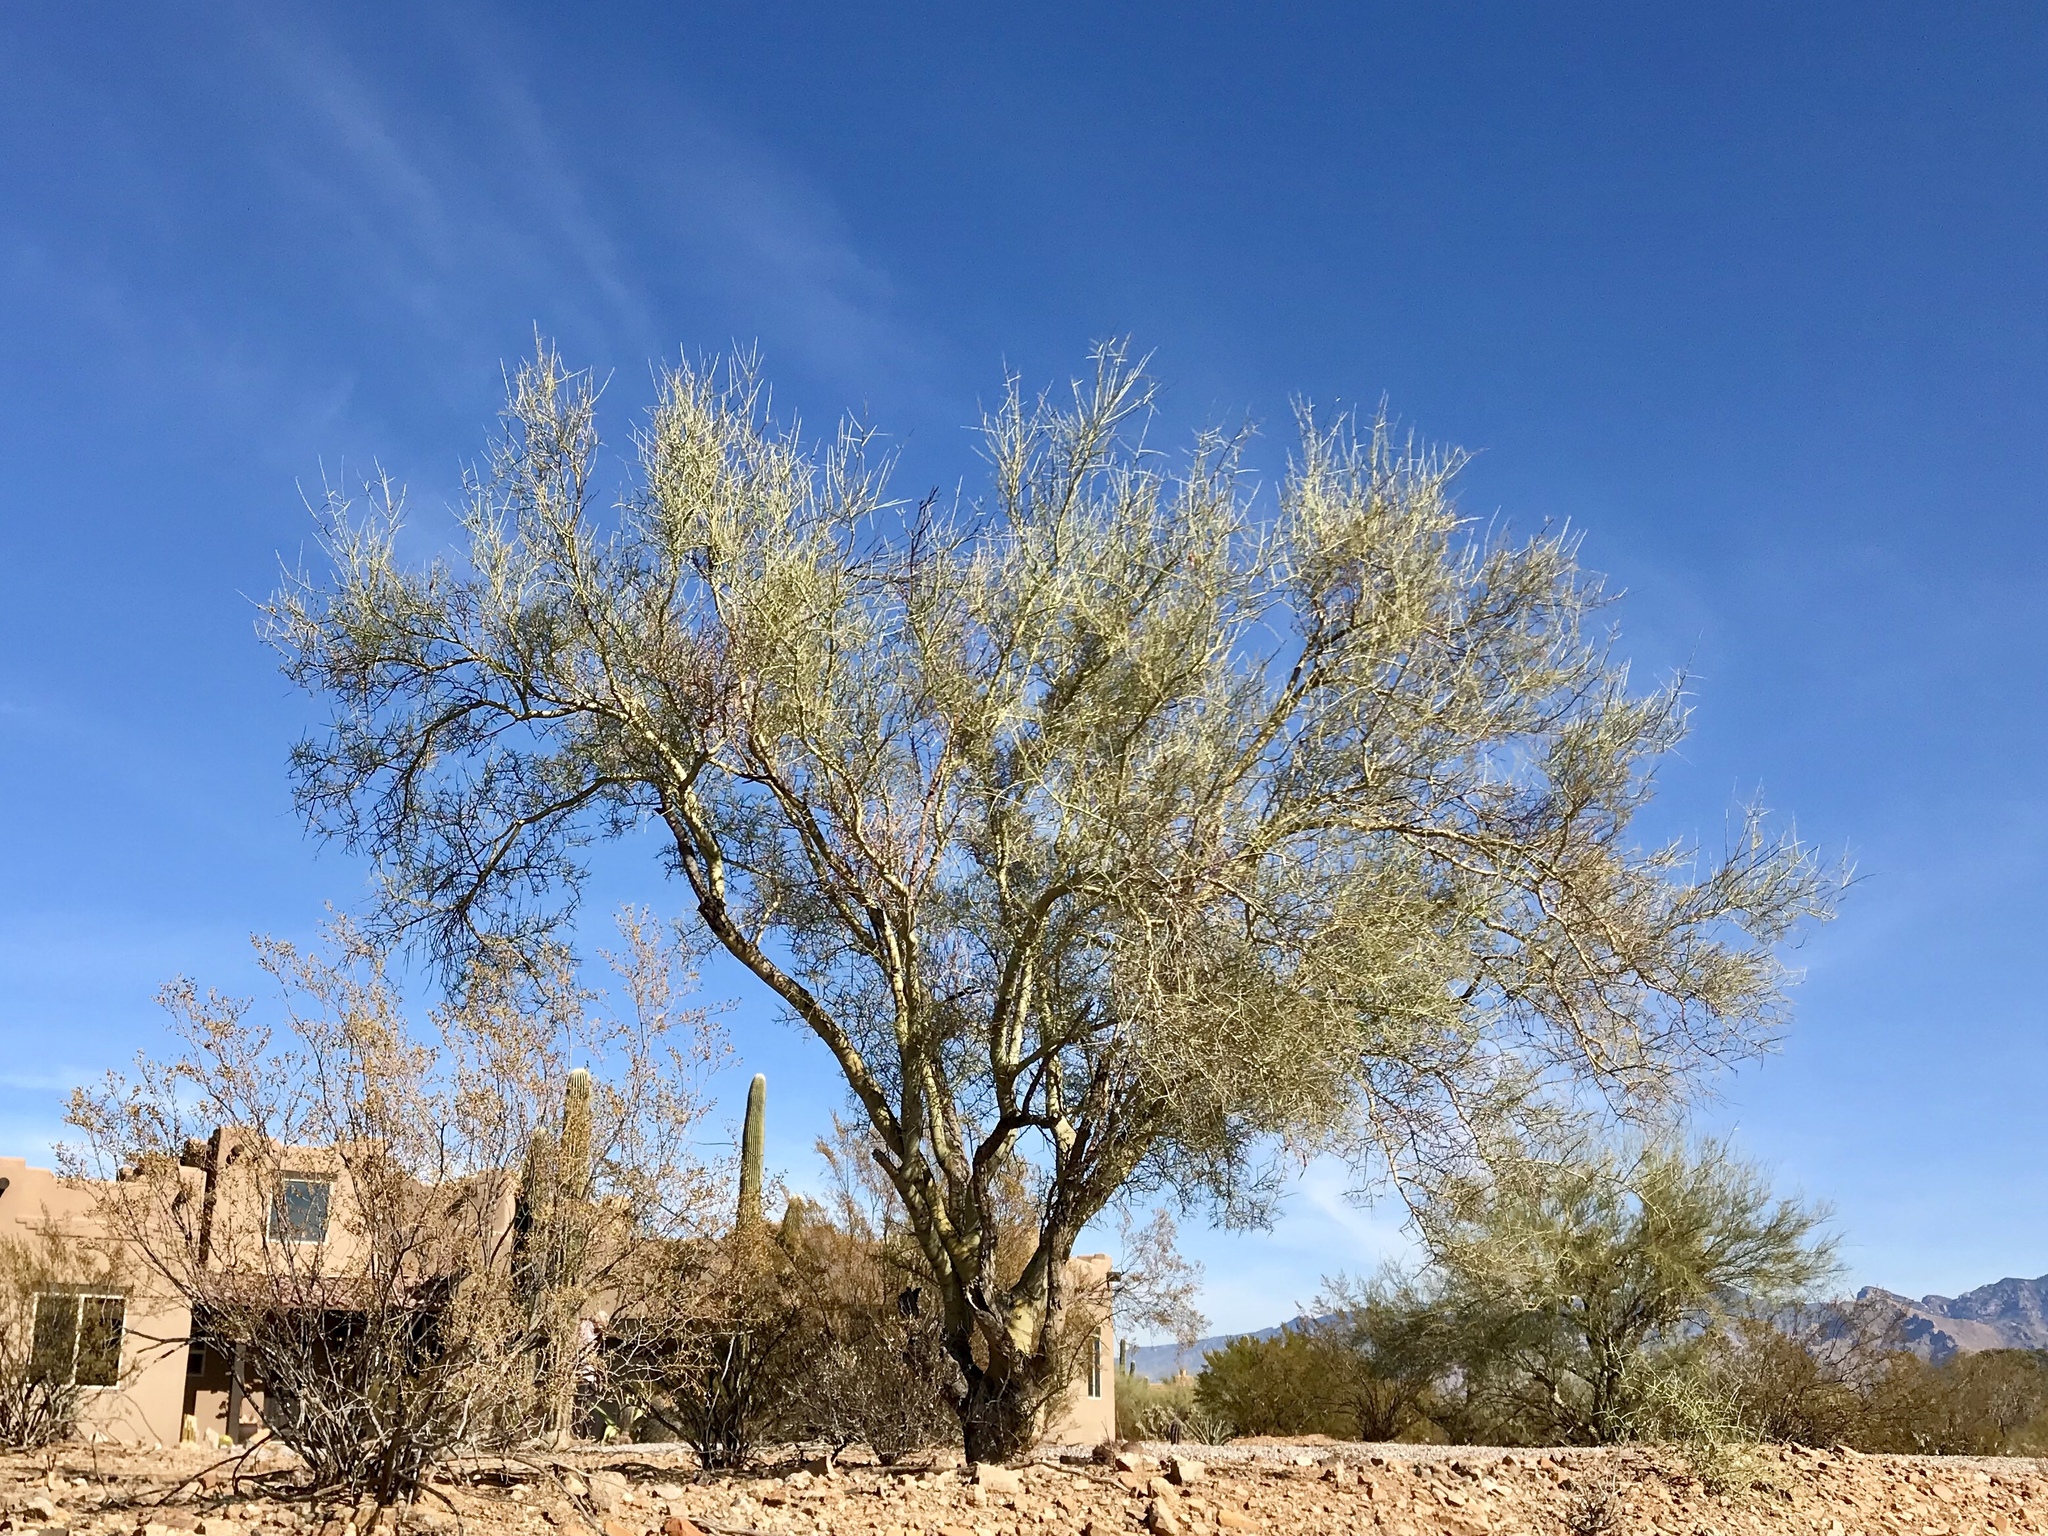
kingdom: Plantae
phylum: Tracheophyta
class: Magnoliopsida
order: Fabales
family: Fabaceae
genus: Parkinsonia
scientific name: Parkinsonia microphylla
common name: Yellow paloverde
